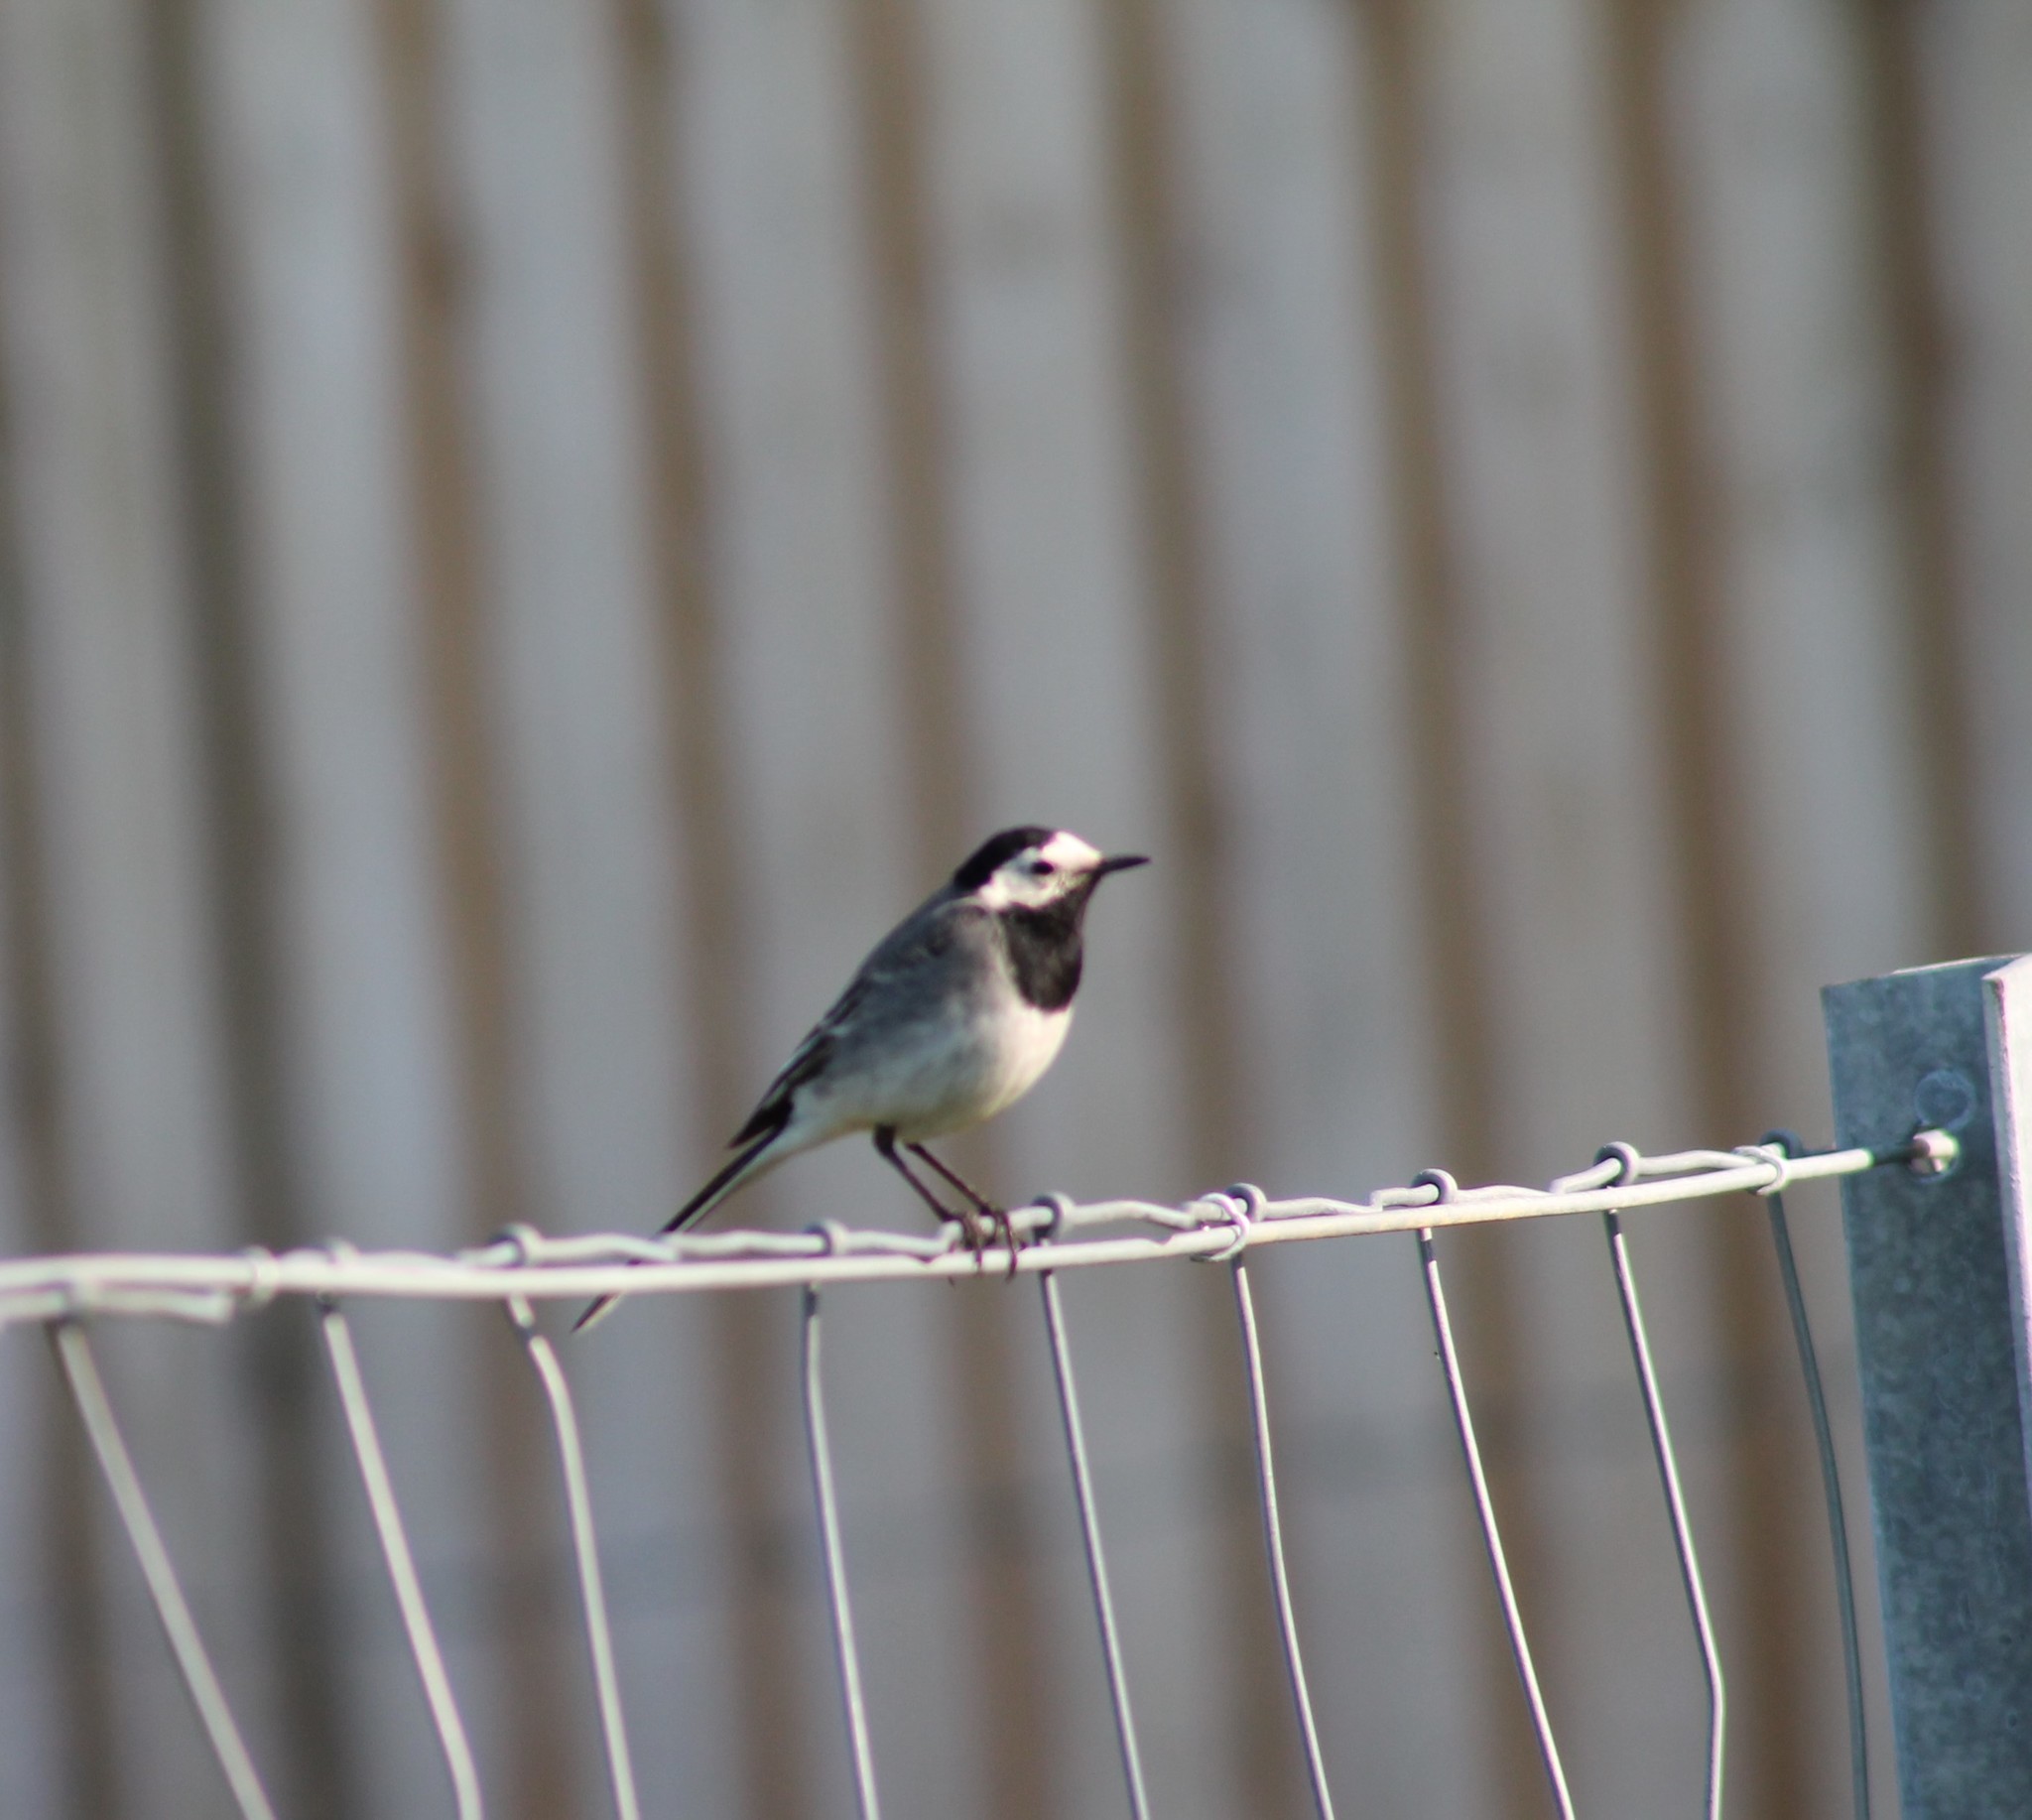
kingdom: Animalia
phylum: Chordata
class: Aves
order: Passeriformes
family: Motacillidae
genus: Motacilla
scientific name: Motacilla alba
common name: White wagtail
